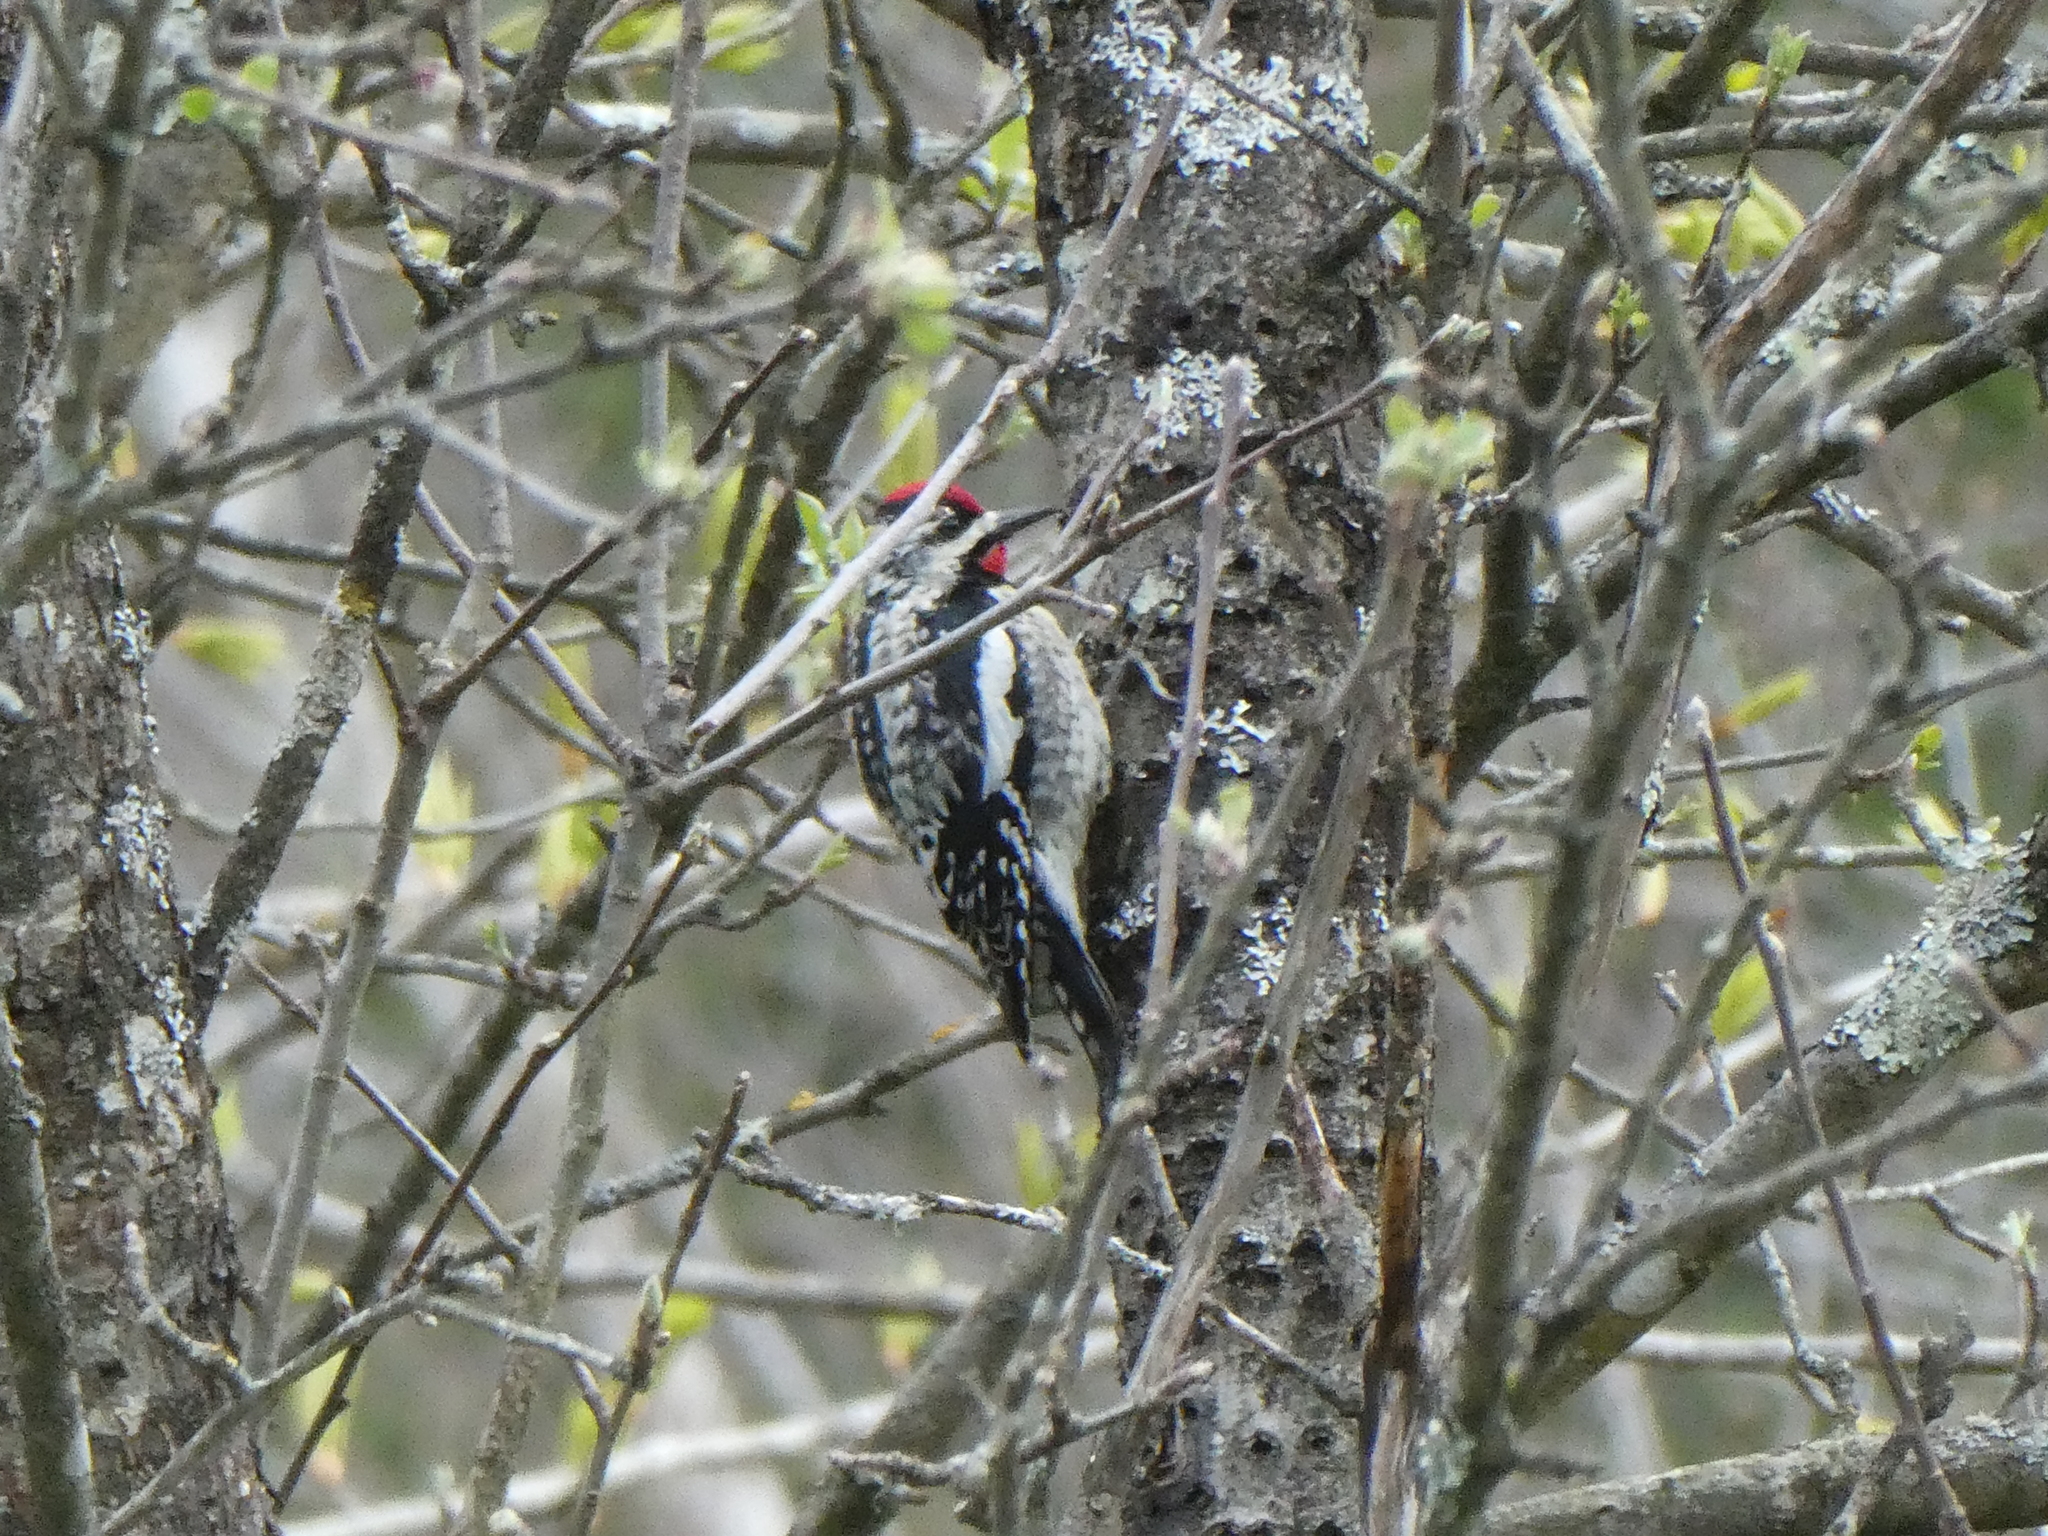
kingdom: Animalia
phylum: Chordata
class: Aves
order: Piciformes
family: Picidae
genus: Sphyrapicus
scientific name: Sphyrapicus varius
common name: Yellow-bellied sapsucker
